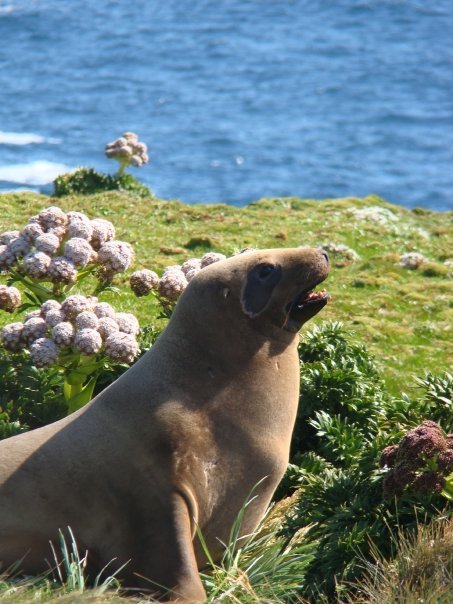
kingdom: Animalia
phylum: Chordata
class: Mammalia
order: Carnivora
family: Otariidae
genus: Phocarctos
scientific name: Phocarctos hookeri
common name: New zealand sea lion
